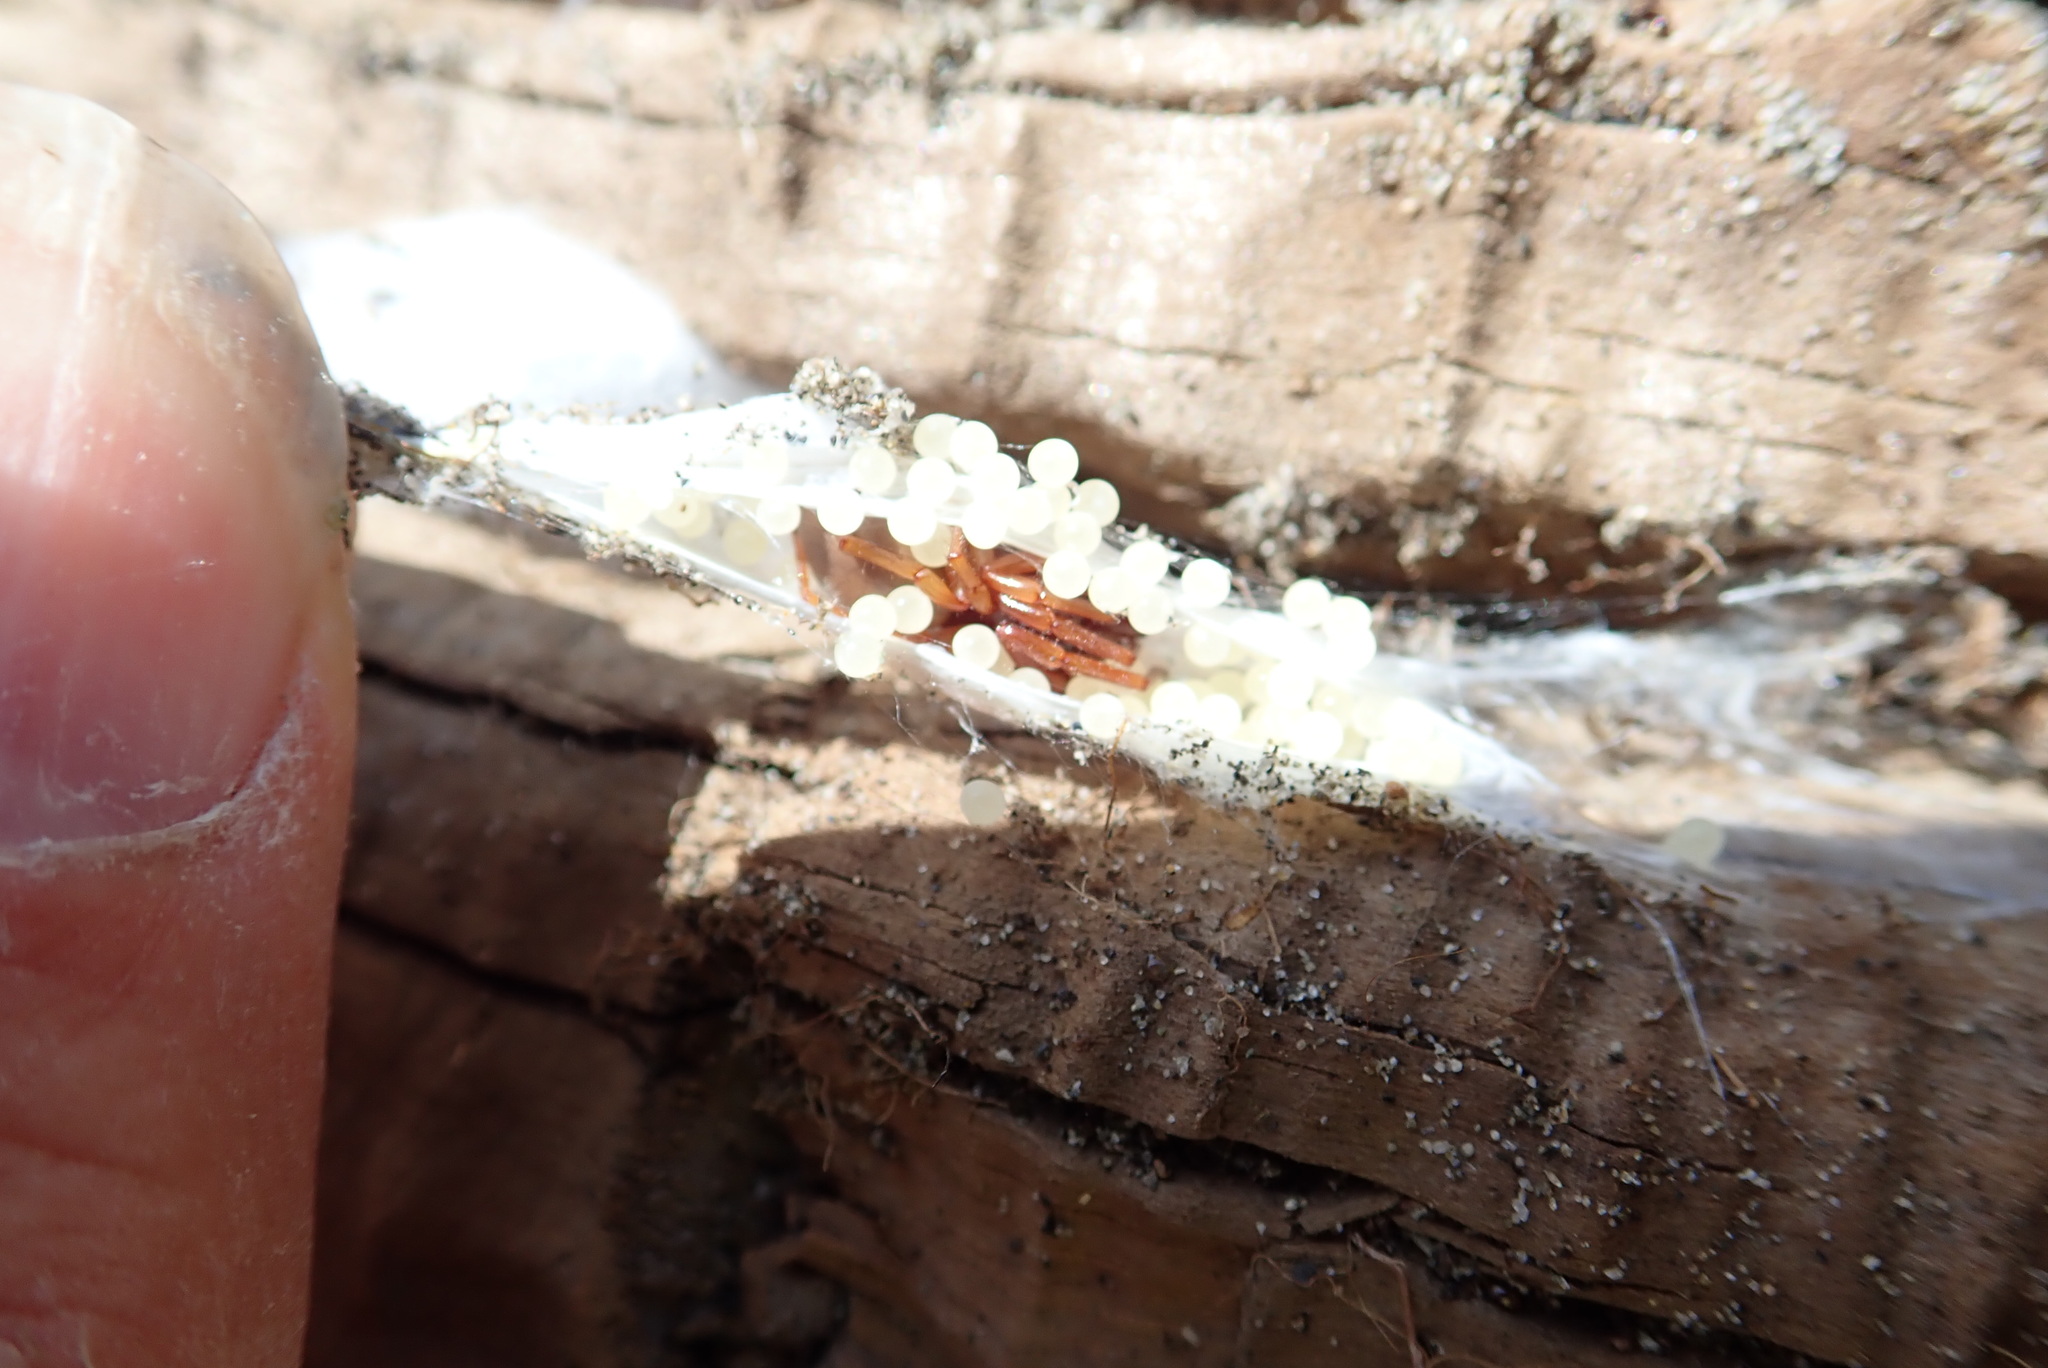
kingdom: Animalia
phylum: Arthropoda
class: Arachnida
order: Araneae
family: Dysderidae
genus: Dysdera
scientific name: Dysdera crocata
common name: Woodlouse spider
